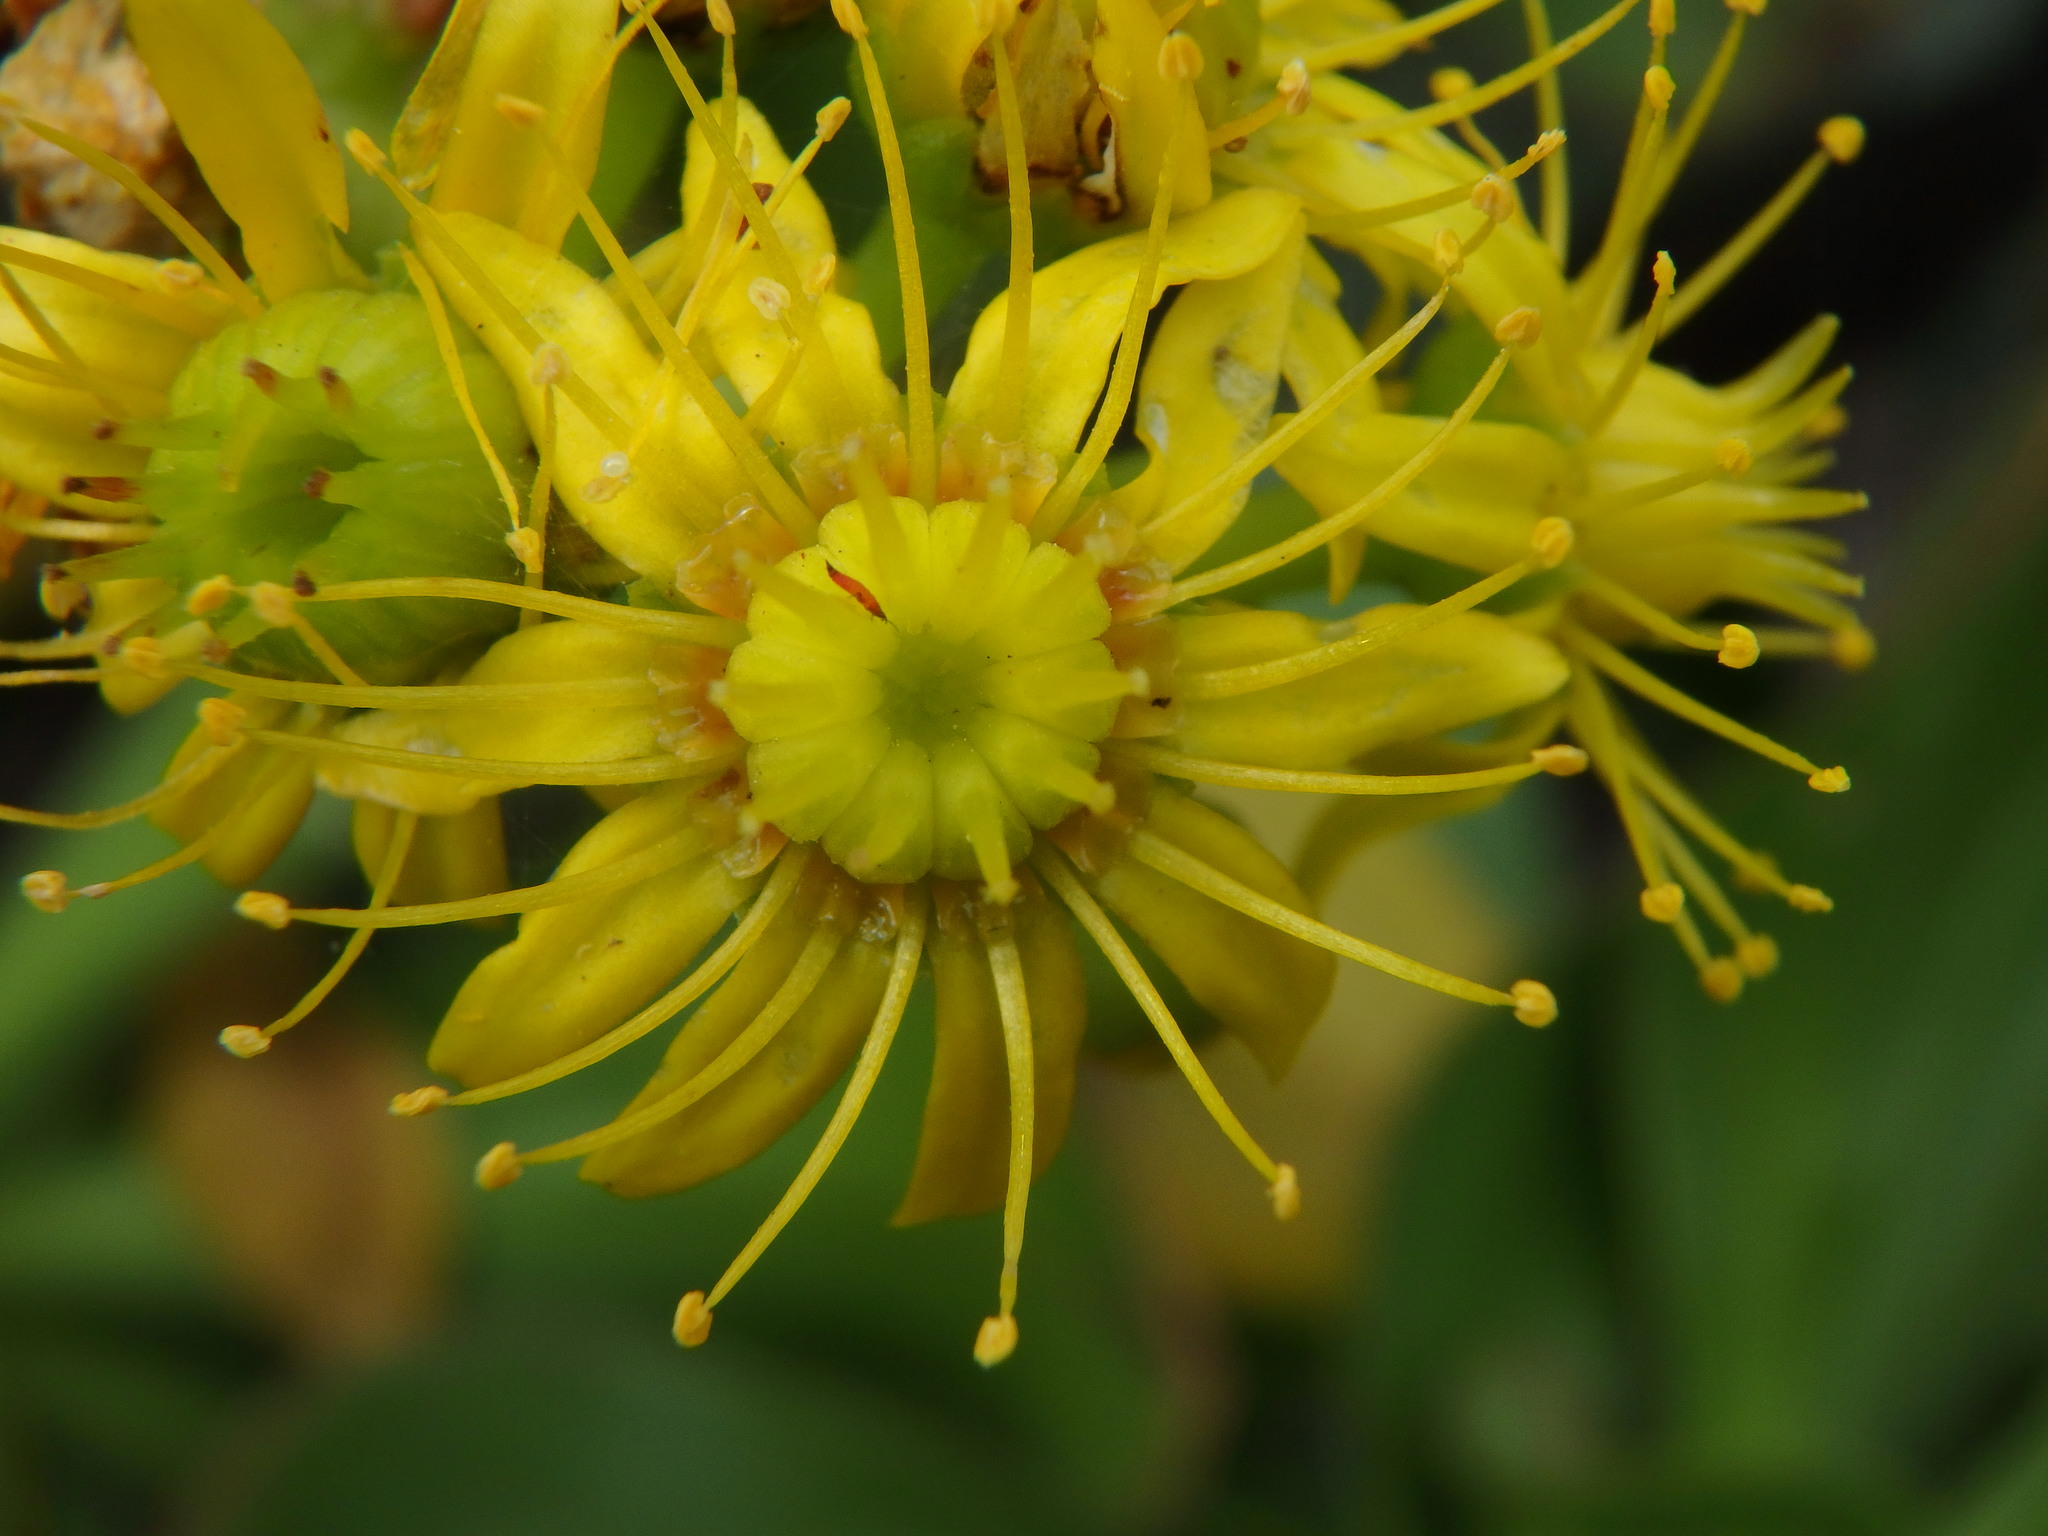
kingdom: Plantae
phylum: Tracheophyta
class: Magnoliopsida
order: Saxifragales
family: Crassulaceae
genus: Aeonium
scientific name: Aeonium arboreum
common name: Tree aeonium
